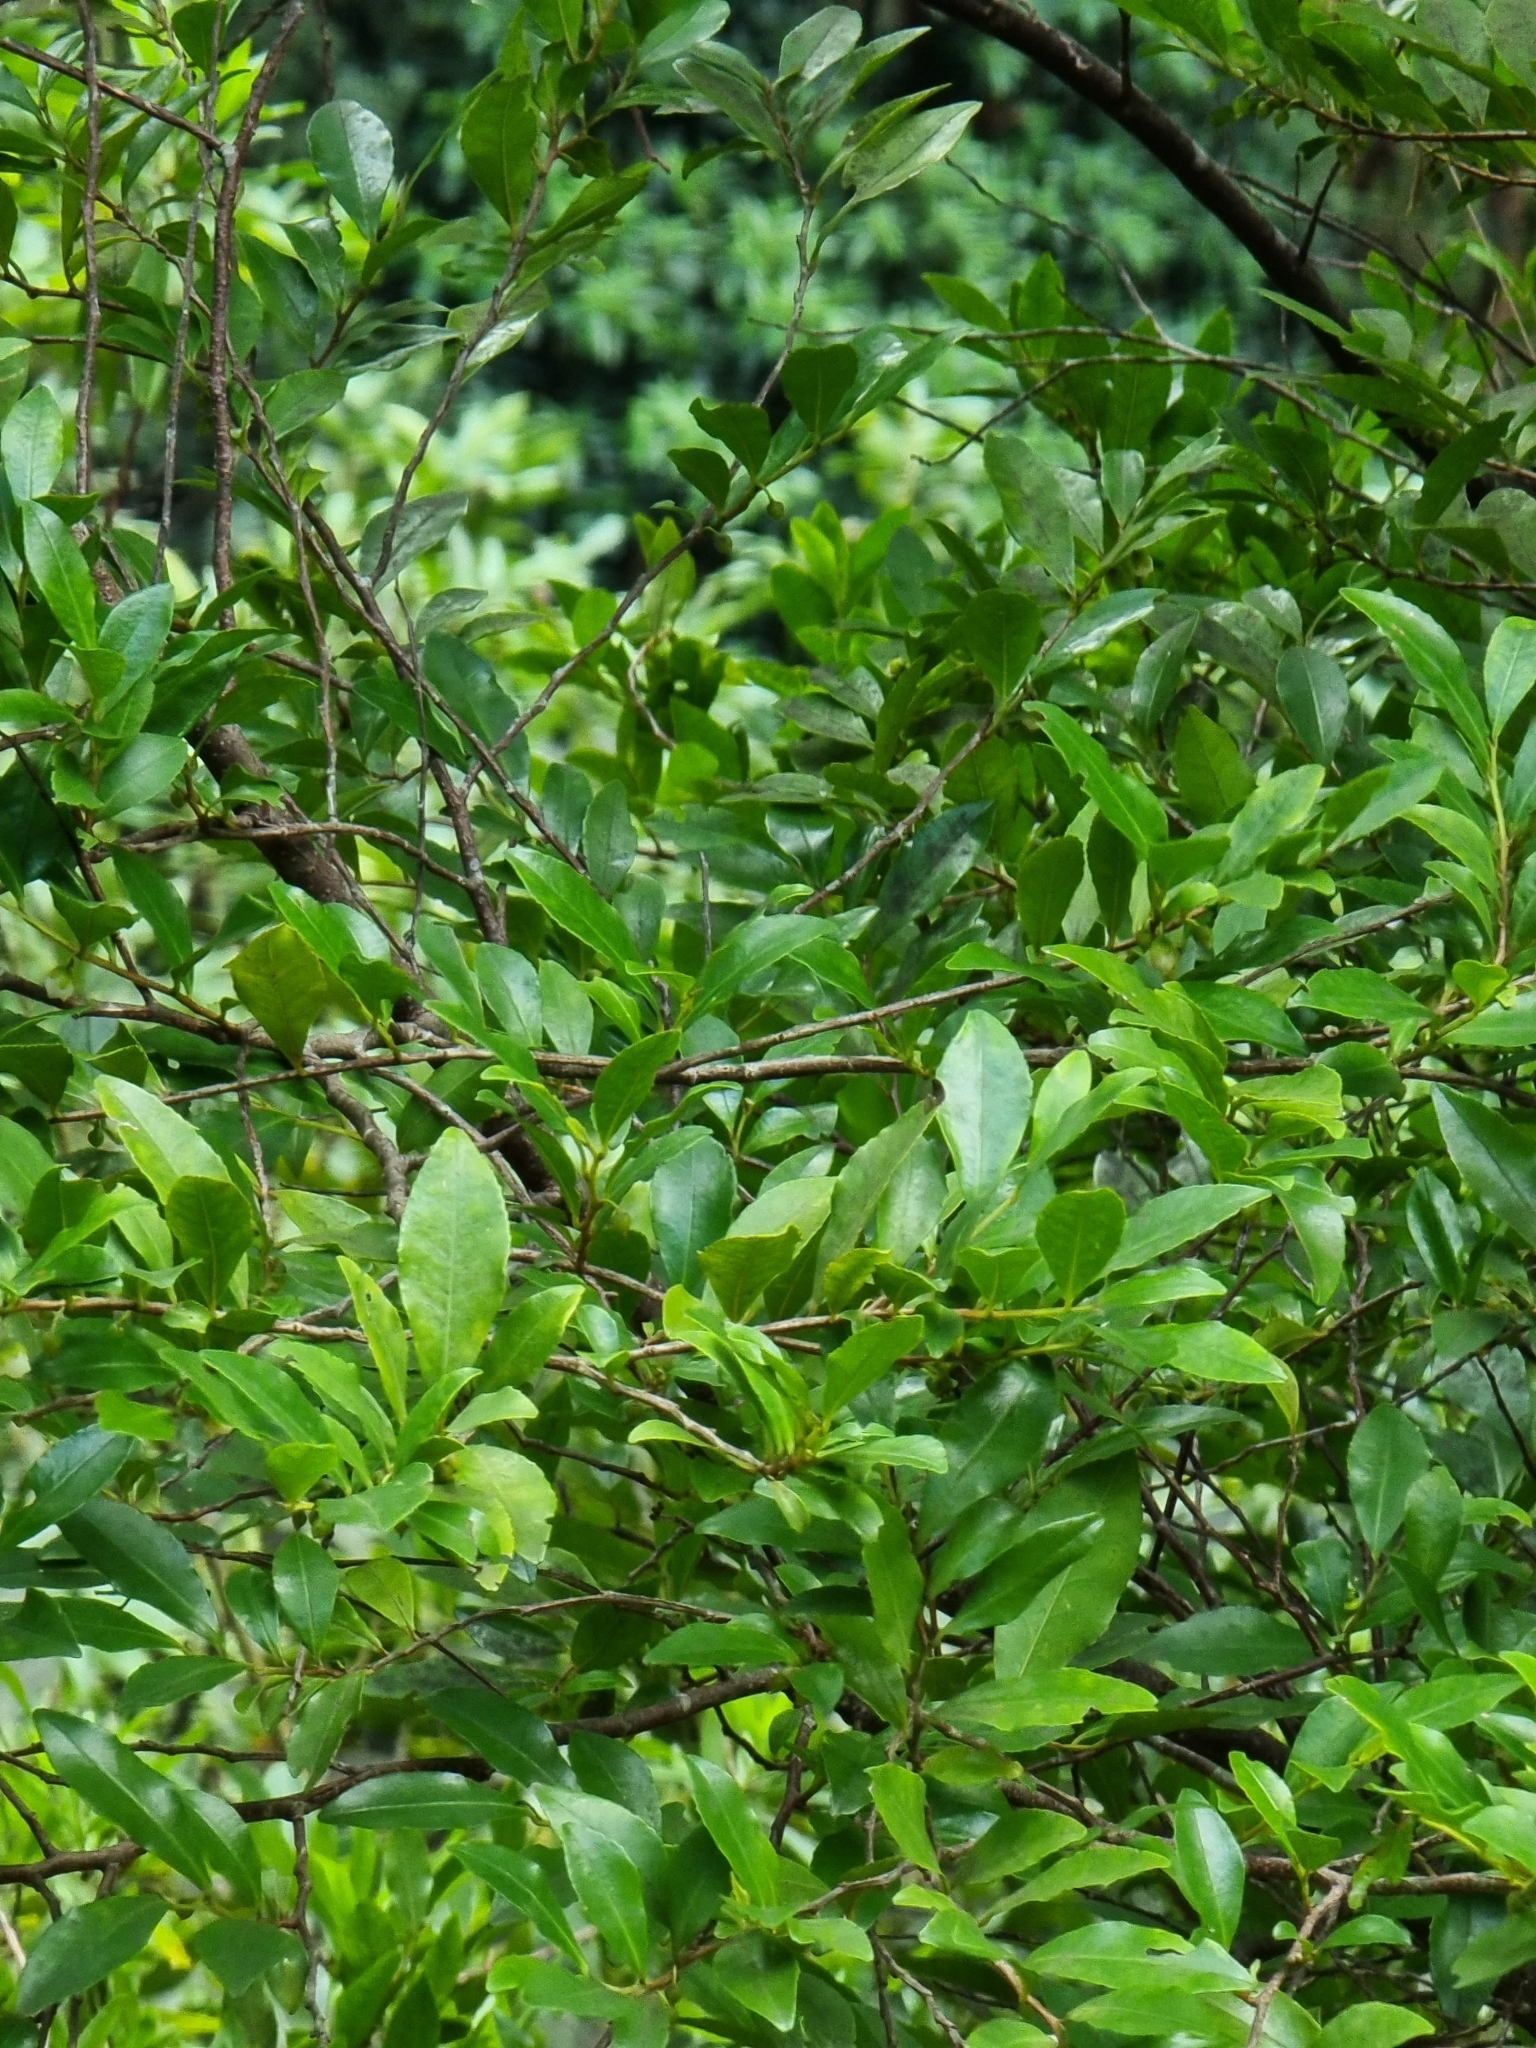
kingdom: Plantae
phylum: Tracheophyta
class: Magnoliopsida
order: Ericales
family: Pentaphylacaceae
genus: Visnea
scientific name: Visnea mocanera
